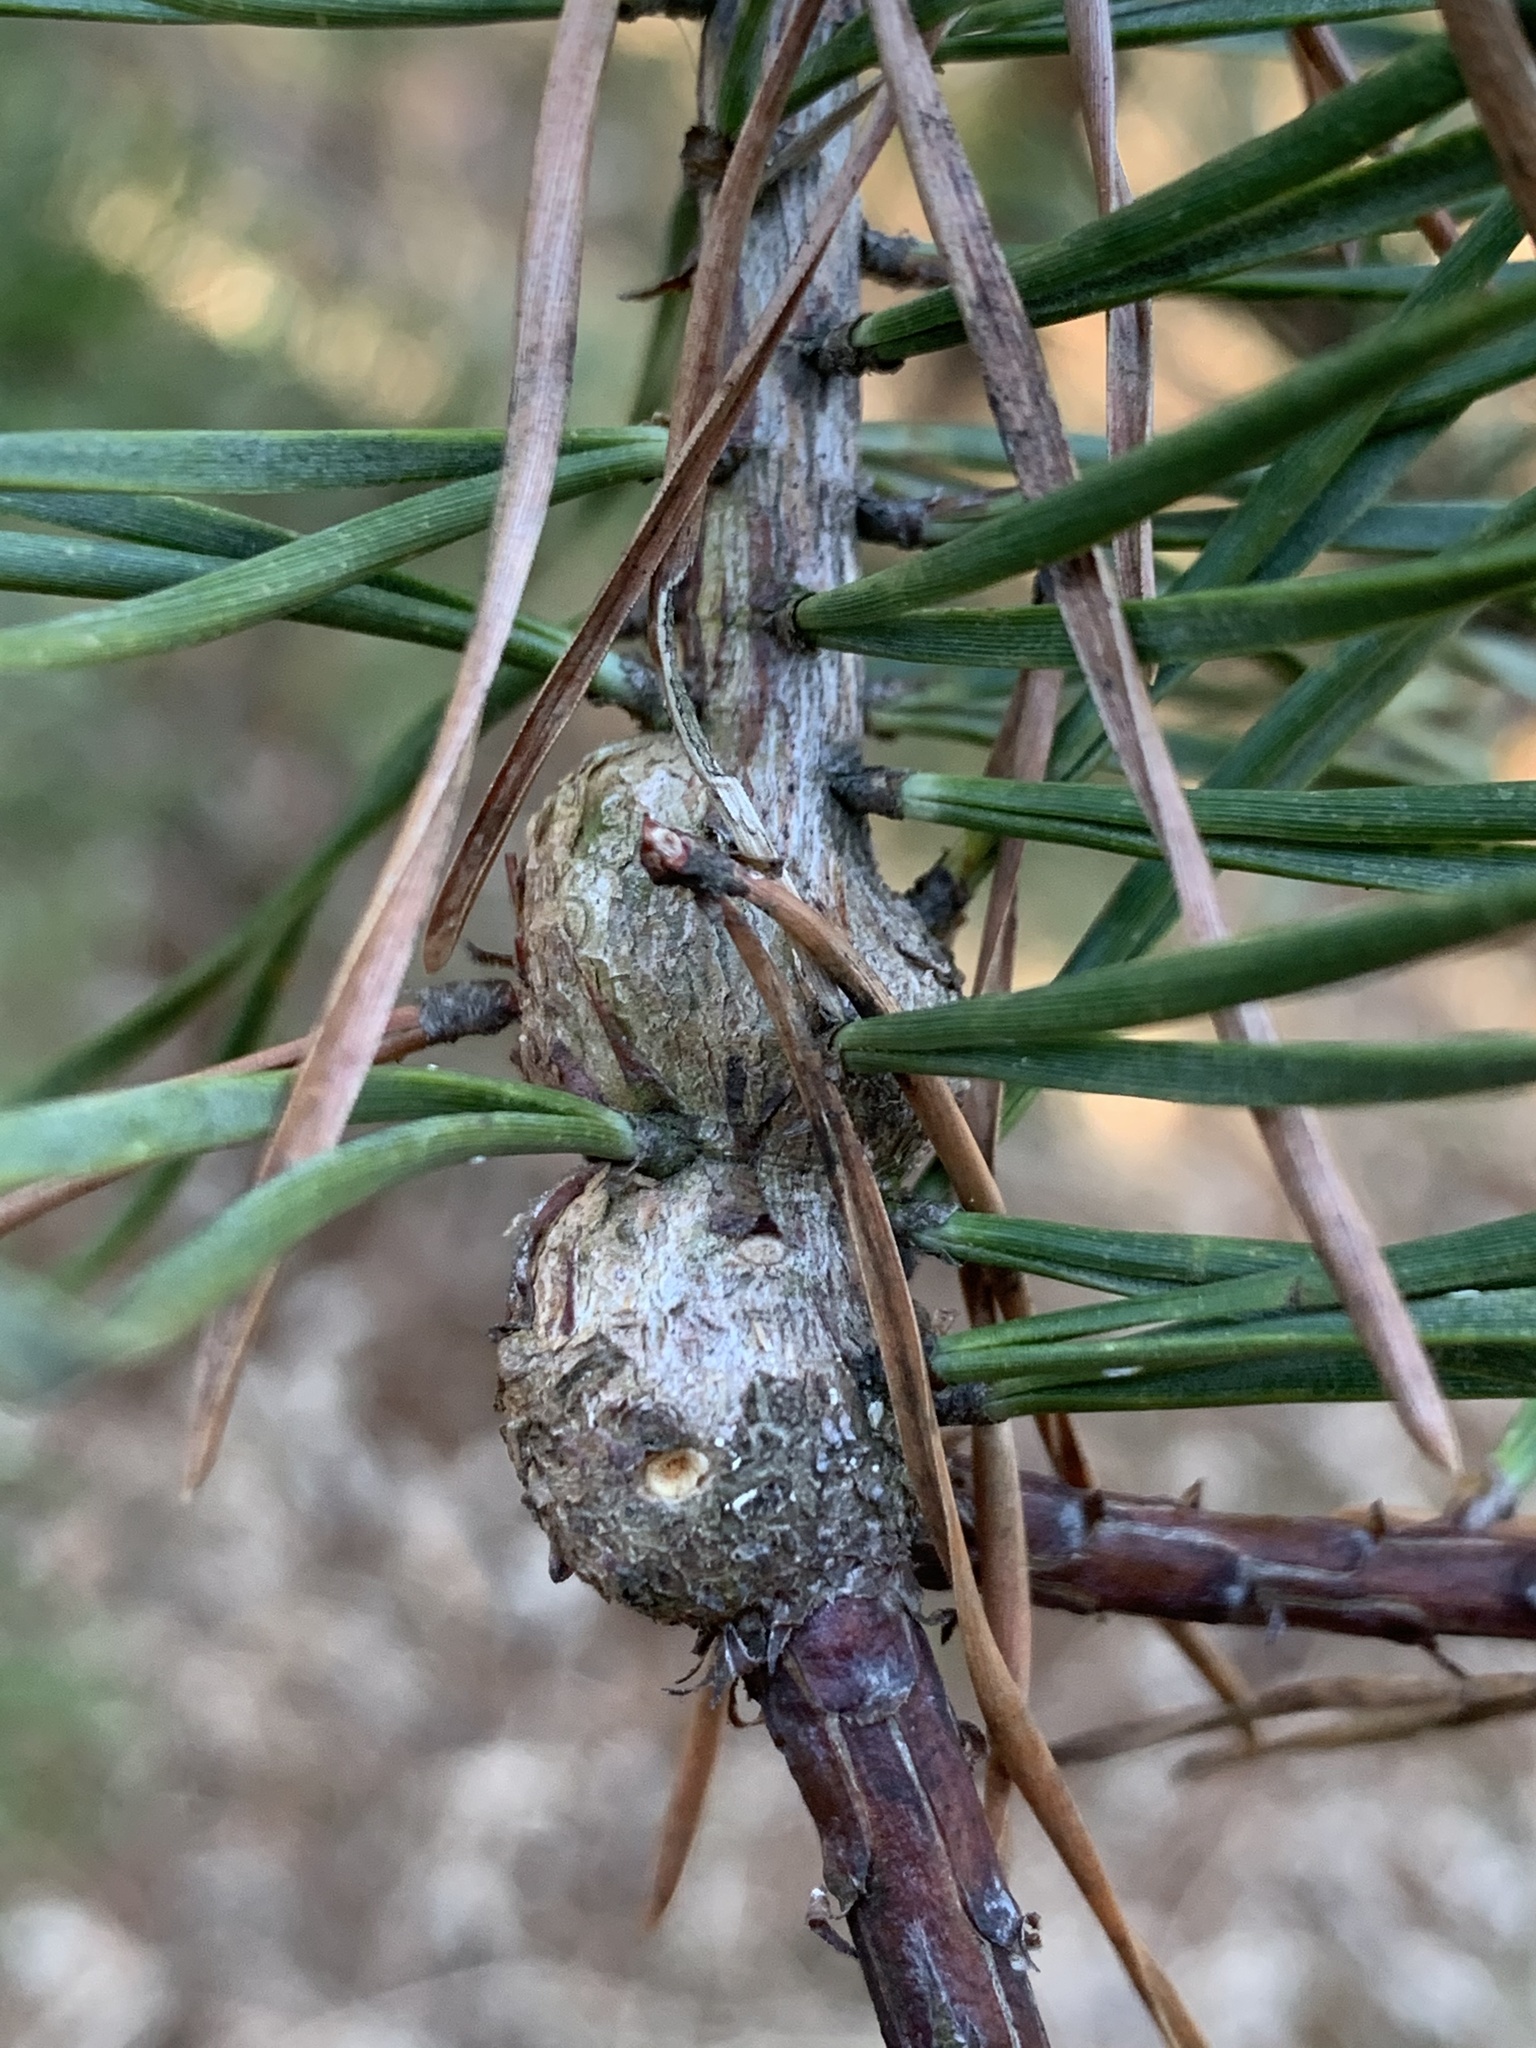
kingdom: Animalia
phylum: Arthropoda
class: Insecta
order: Coleoptera
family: Brentidae
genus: Podapion
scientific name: Podapion gallicola
